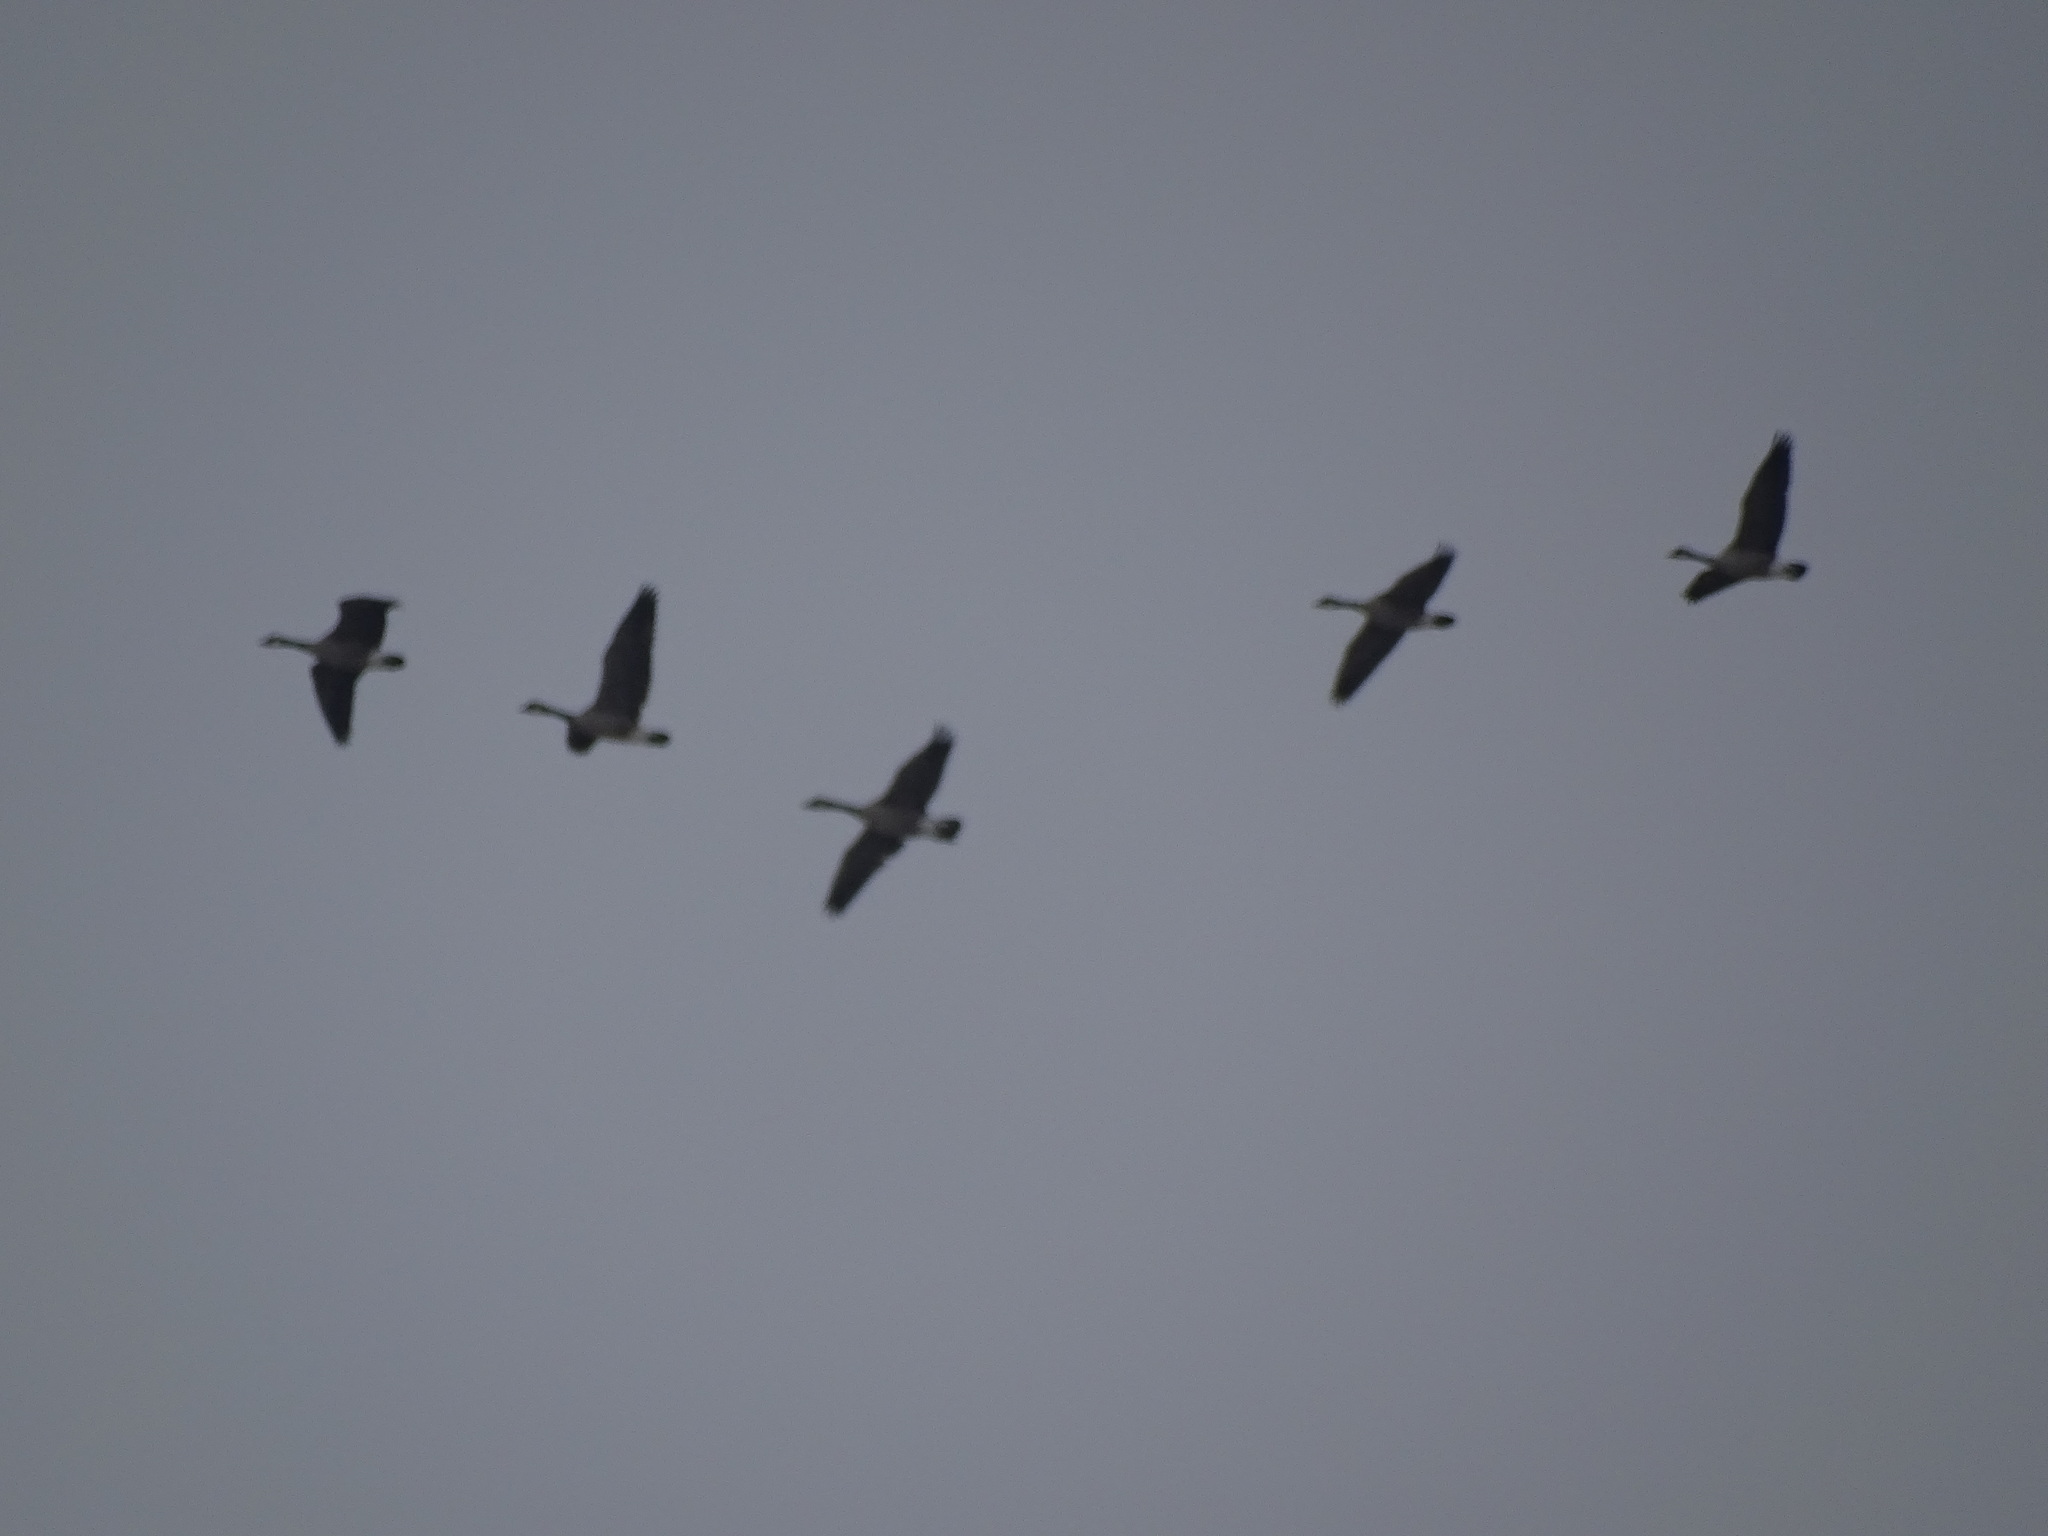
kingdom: Animalia
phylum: Chordata
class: Aves
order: Anseriformes
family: Anatidae
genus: Branta
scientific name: Branta canadensis
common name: Canada goose
